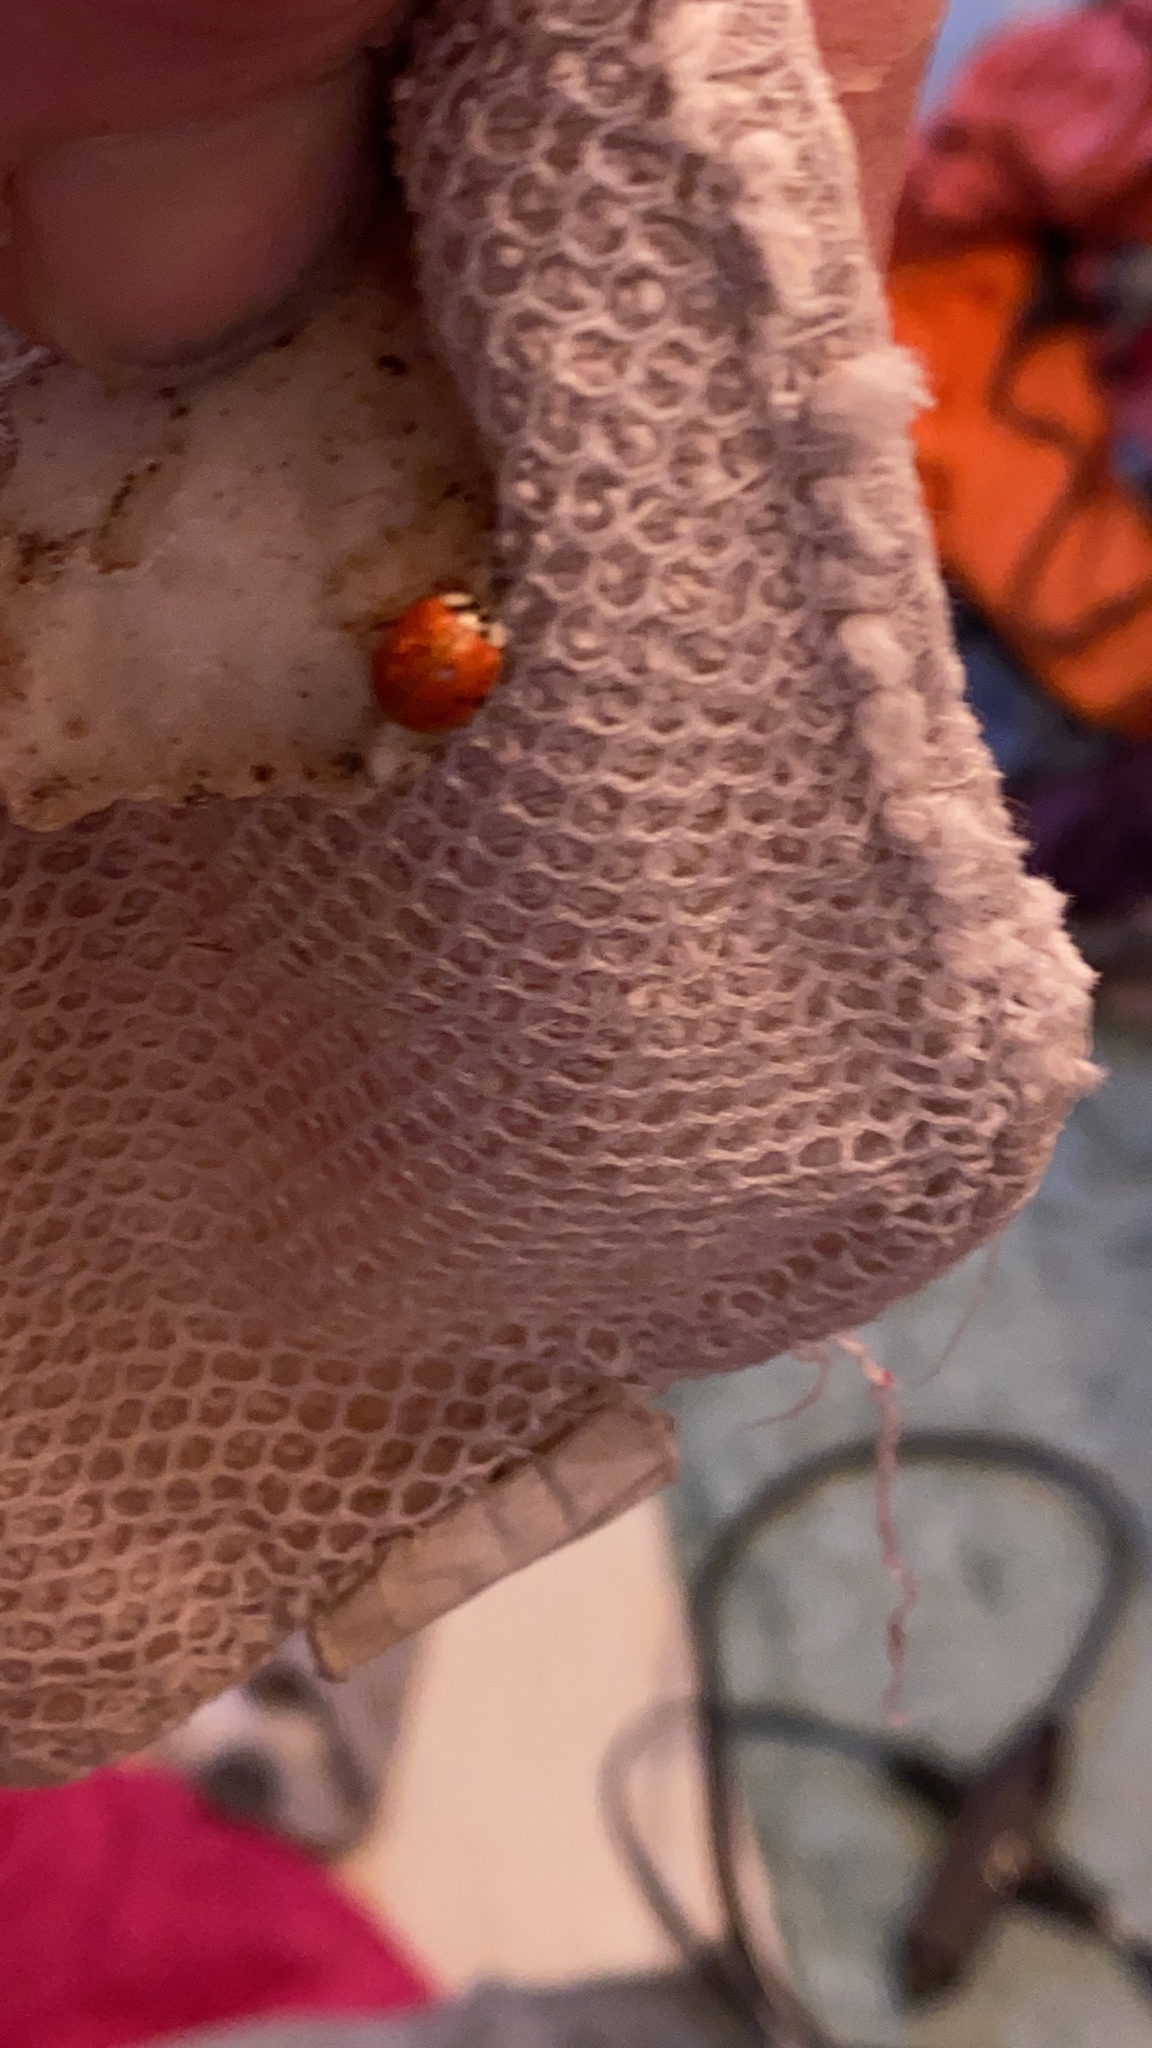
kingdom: Animalia
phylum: Arthropoda
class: Insecta
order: Coleoptera
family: Coccinellidae
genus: Harmonia
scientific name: Harmonia axyridis
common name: Harlequin ladybird
